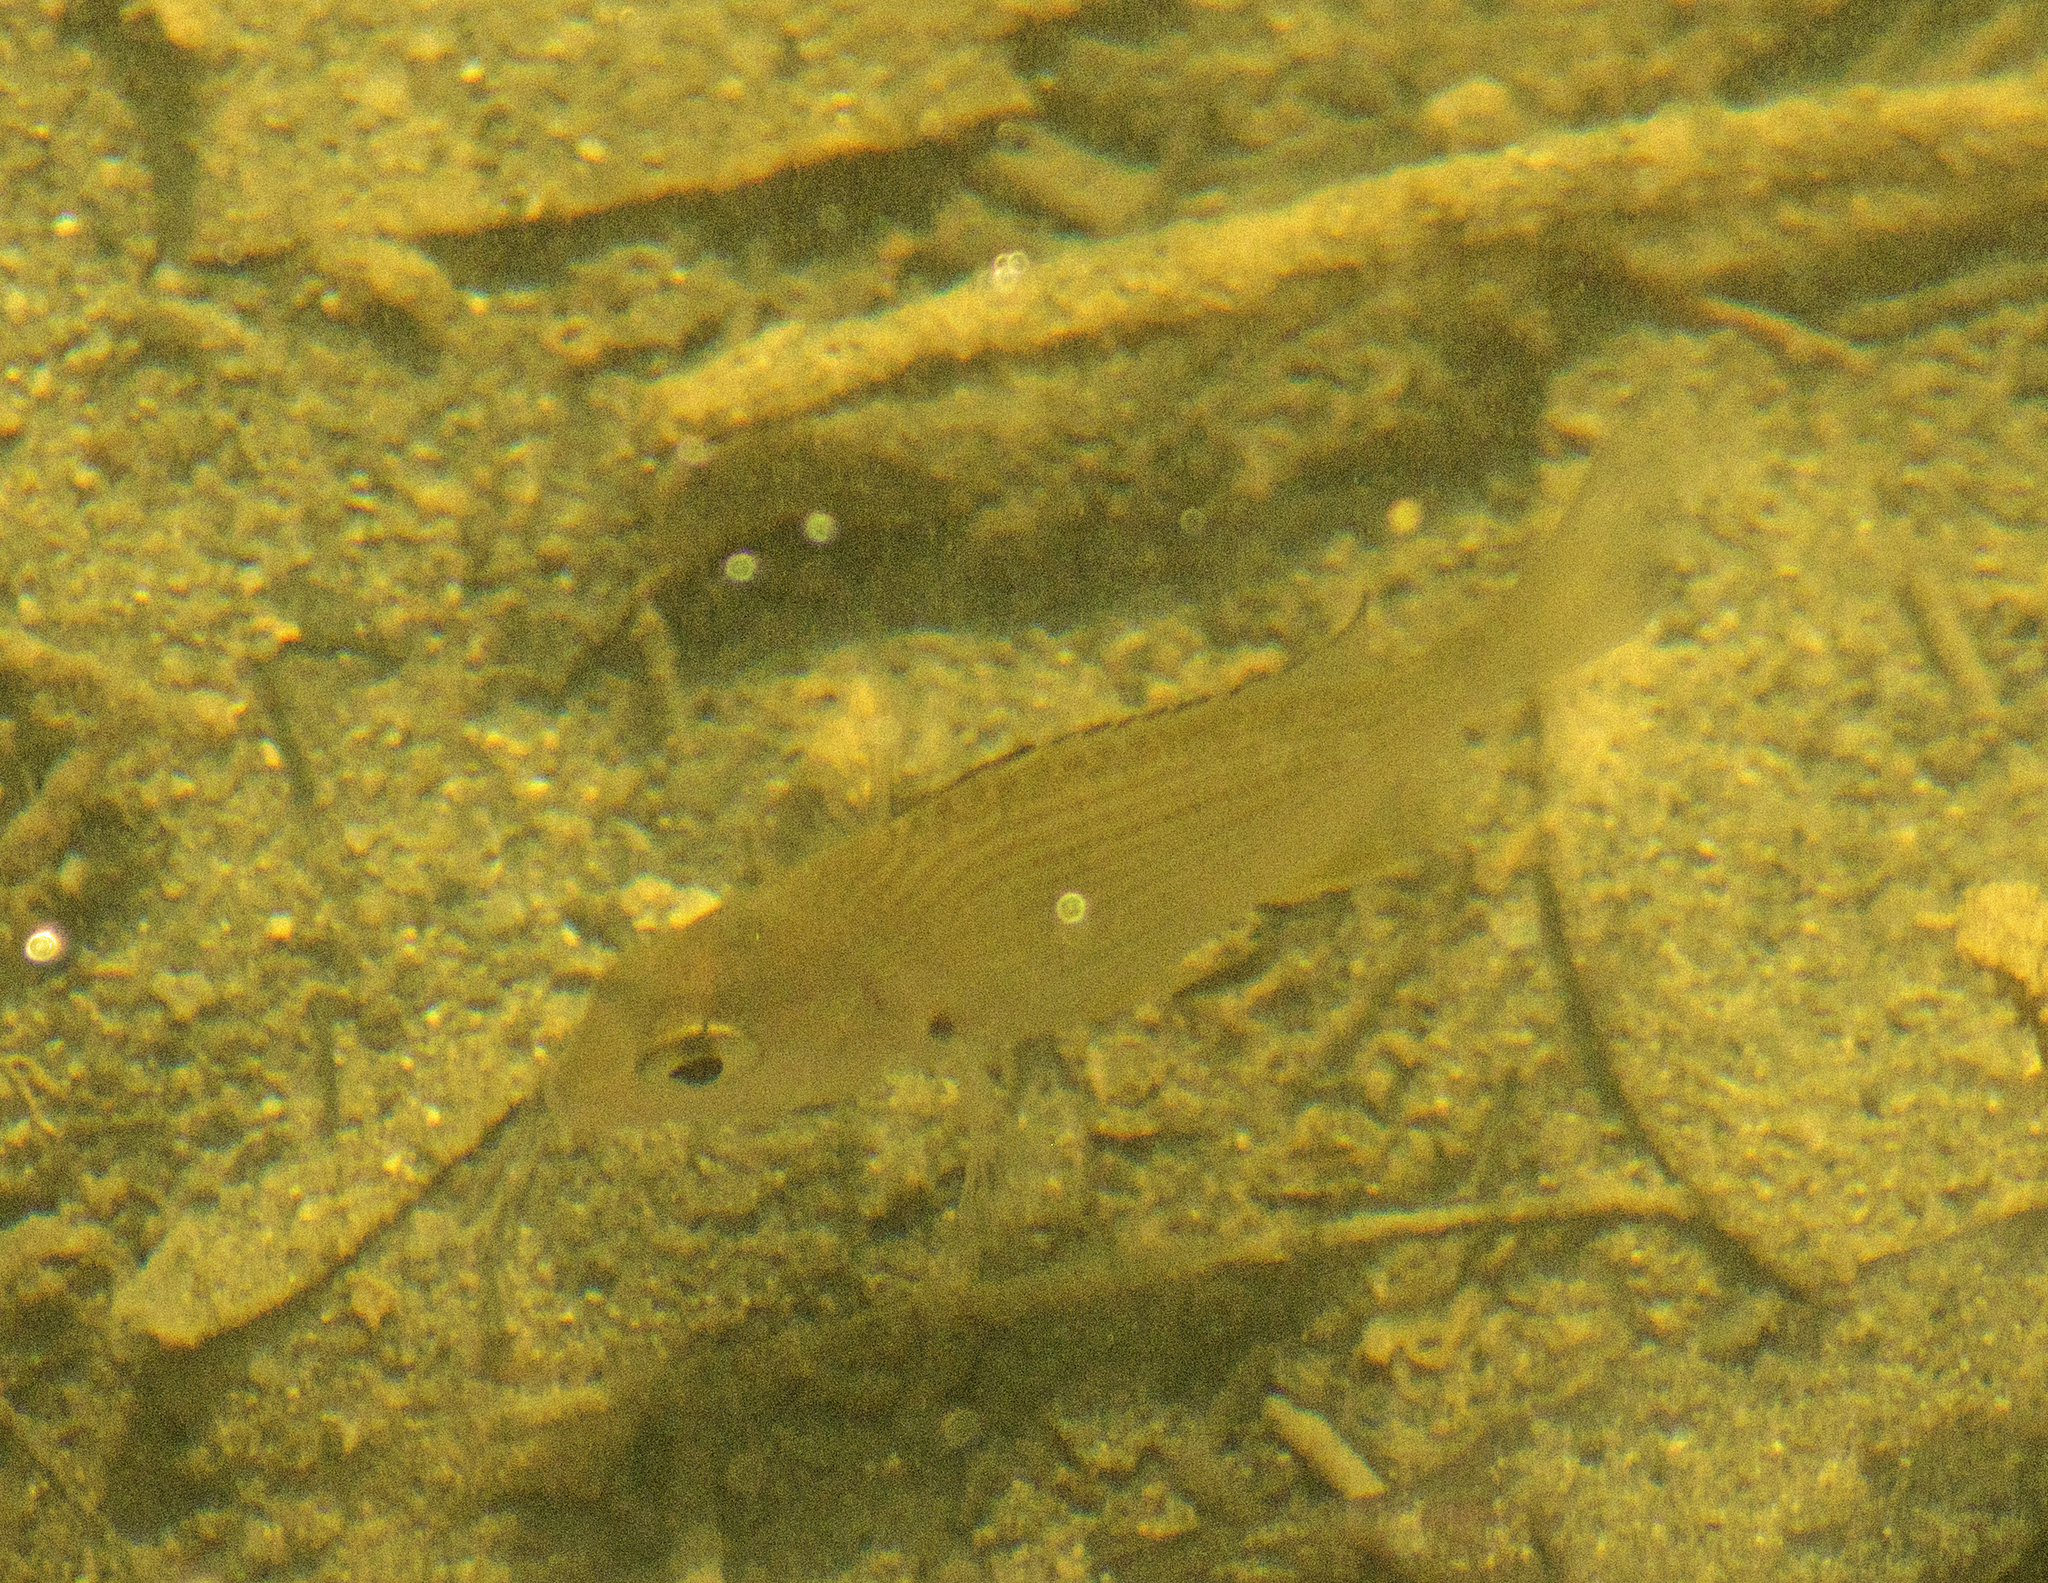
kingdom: Animalia
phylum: Chordata
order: Perciformes
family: Sparidae
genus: Acanthopagrus
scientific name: Acanthopagrus australis
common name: Surf bream
